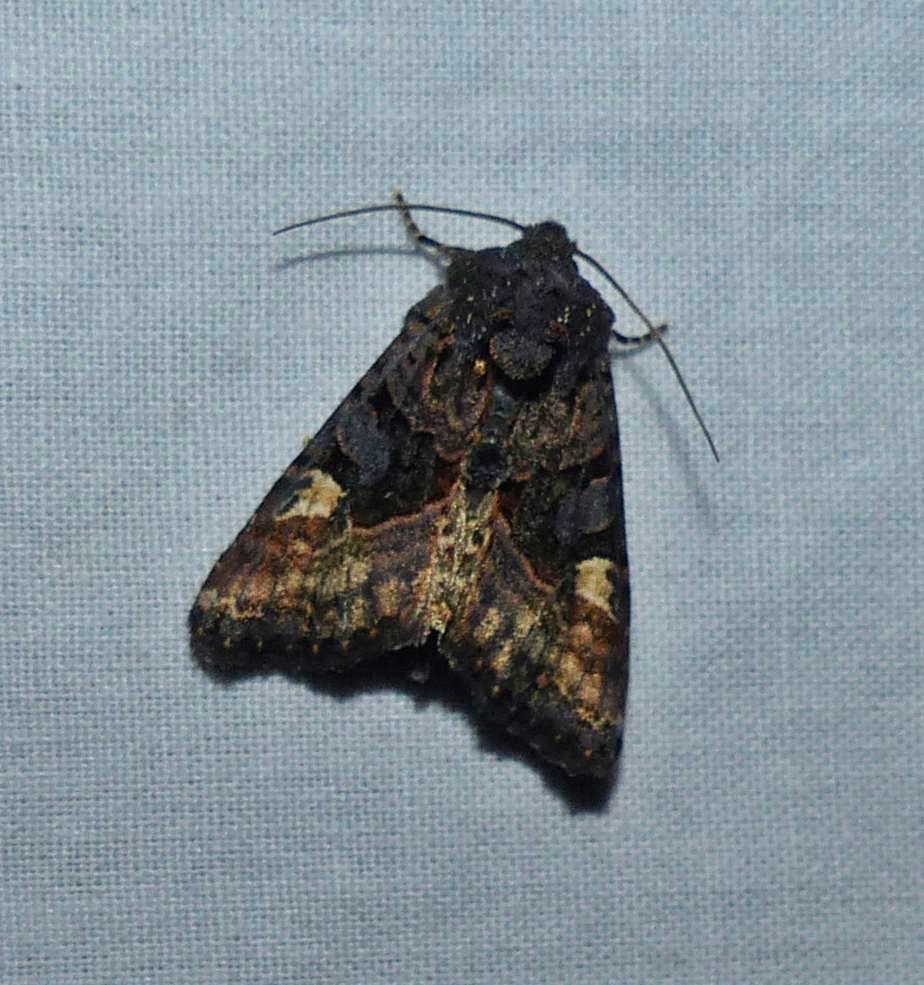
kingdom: Animalia
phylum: Arthropoda
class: Insecta
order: Lepidoptera
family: Noctuidae
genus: Euplexia
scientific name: Euplexia benesimilis
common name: American angle shades
